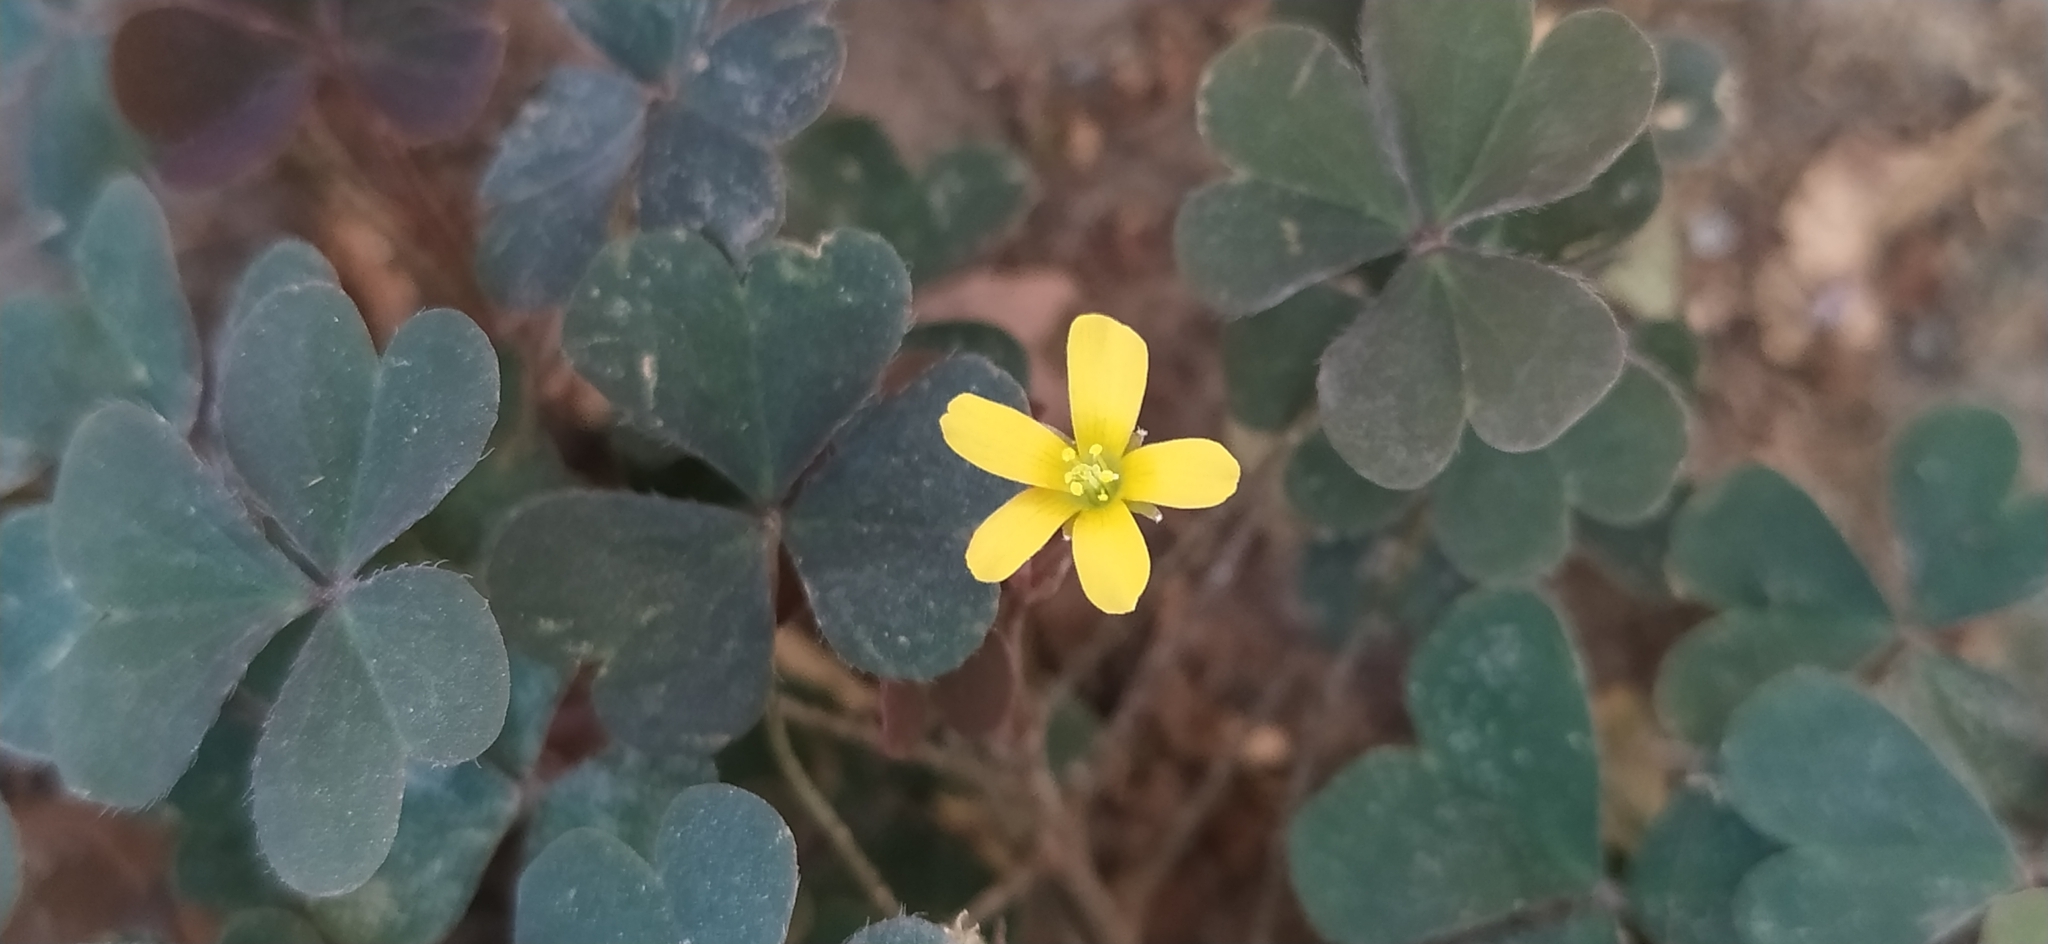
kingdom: Plantae
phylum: Tracheophyta
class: Magnoliopsida
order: Oxalidales
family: Oxalidaceae
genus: Oxalis
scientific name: Oxalis corniculata
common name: Procumbent yellow-sorrel
